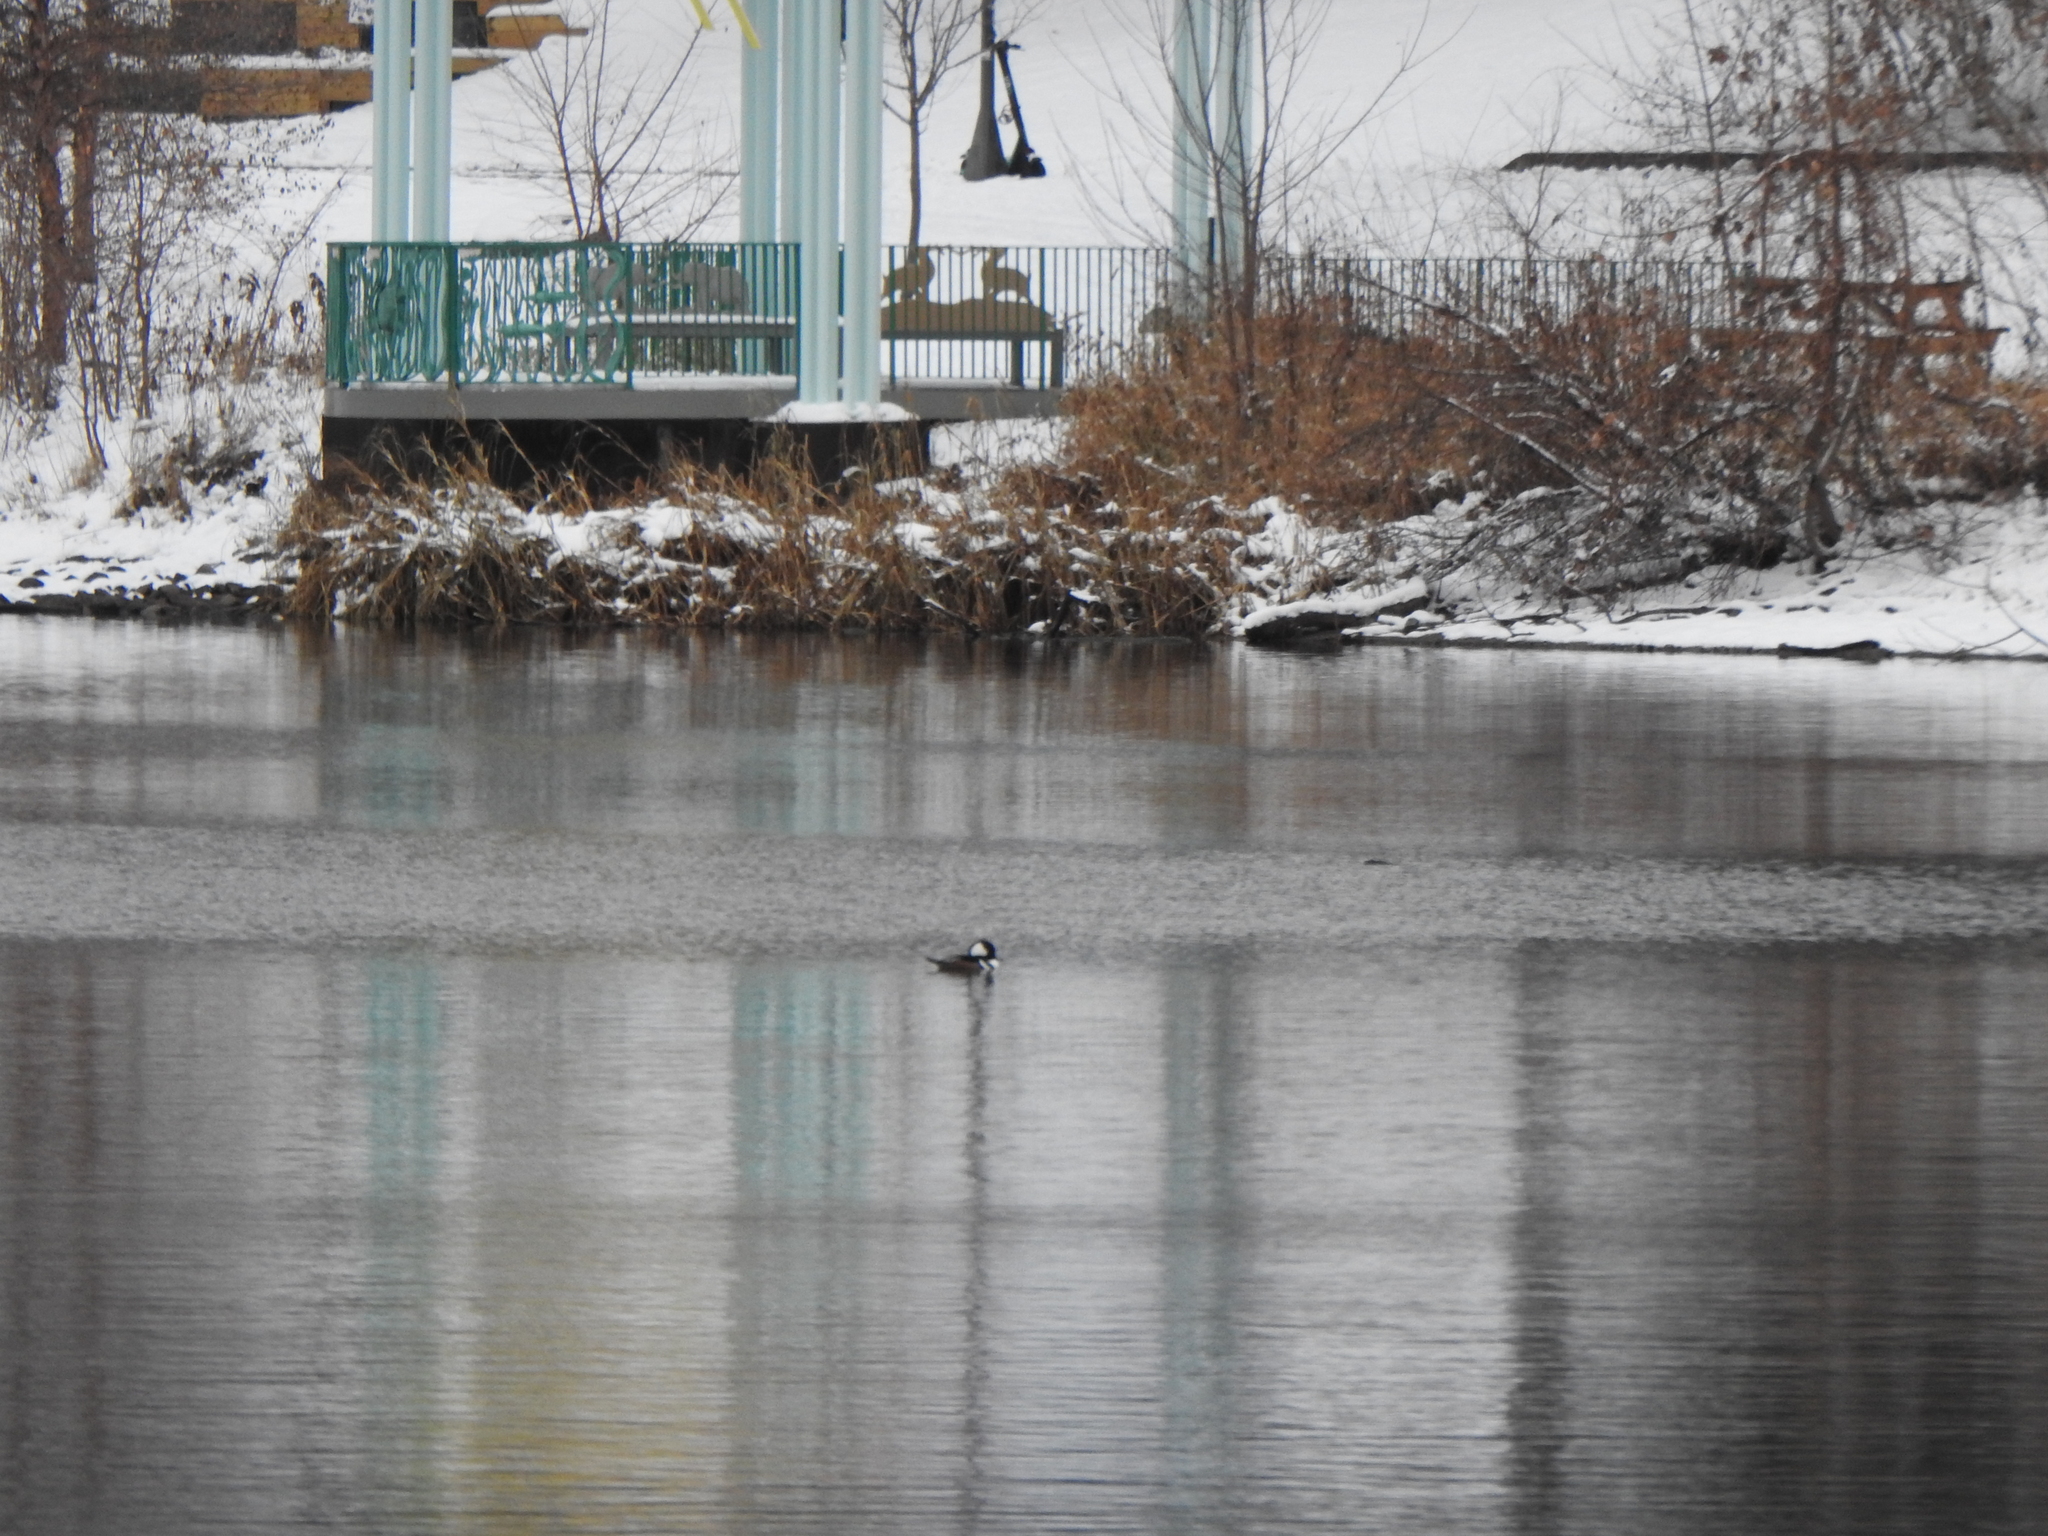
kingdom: Animalia
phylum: Chordata
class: Aves
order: Anseriformes
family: Anatidae
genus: Lophodytes
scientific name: Lophodytes cucullatus
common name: Hooded merganser
